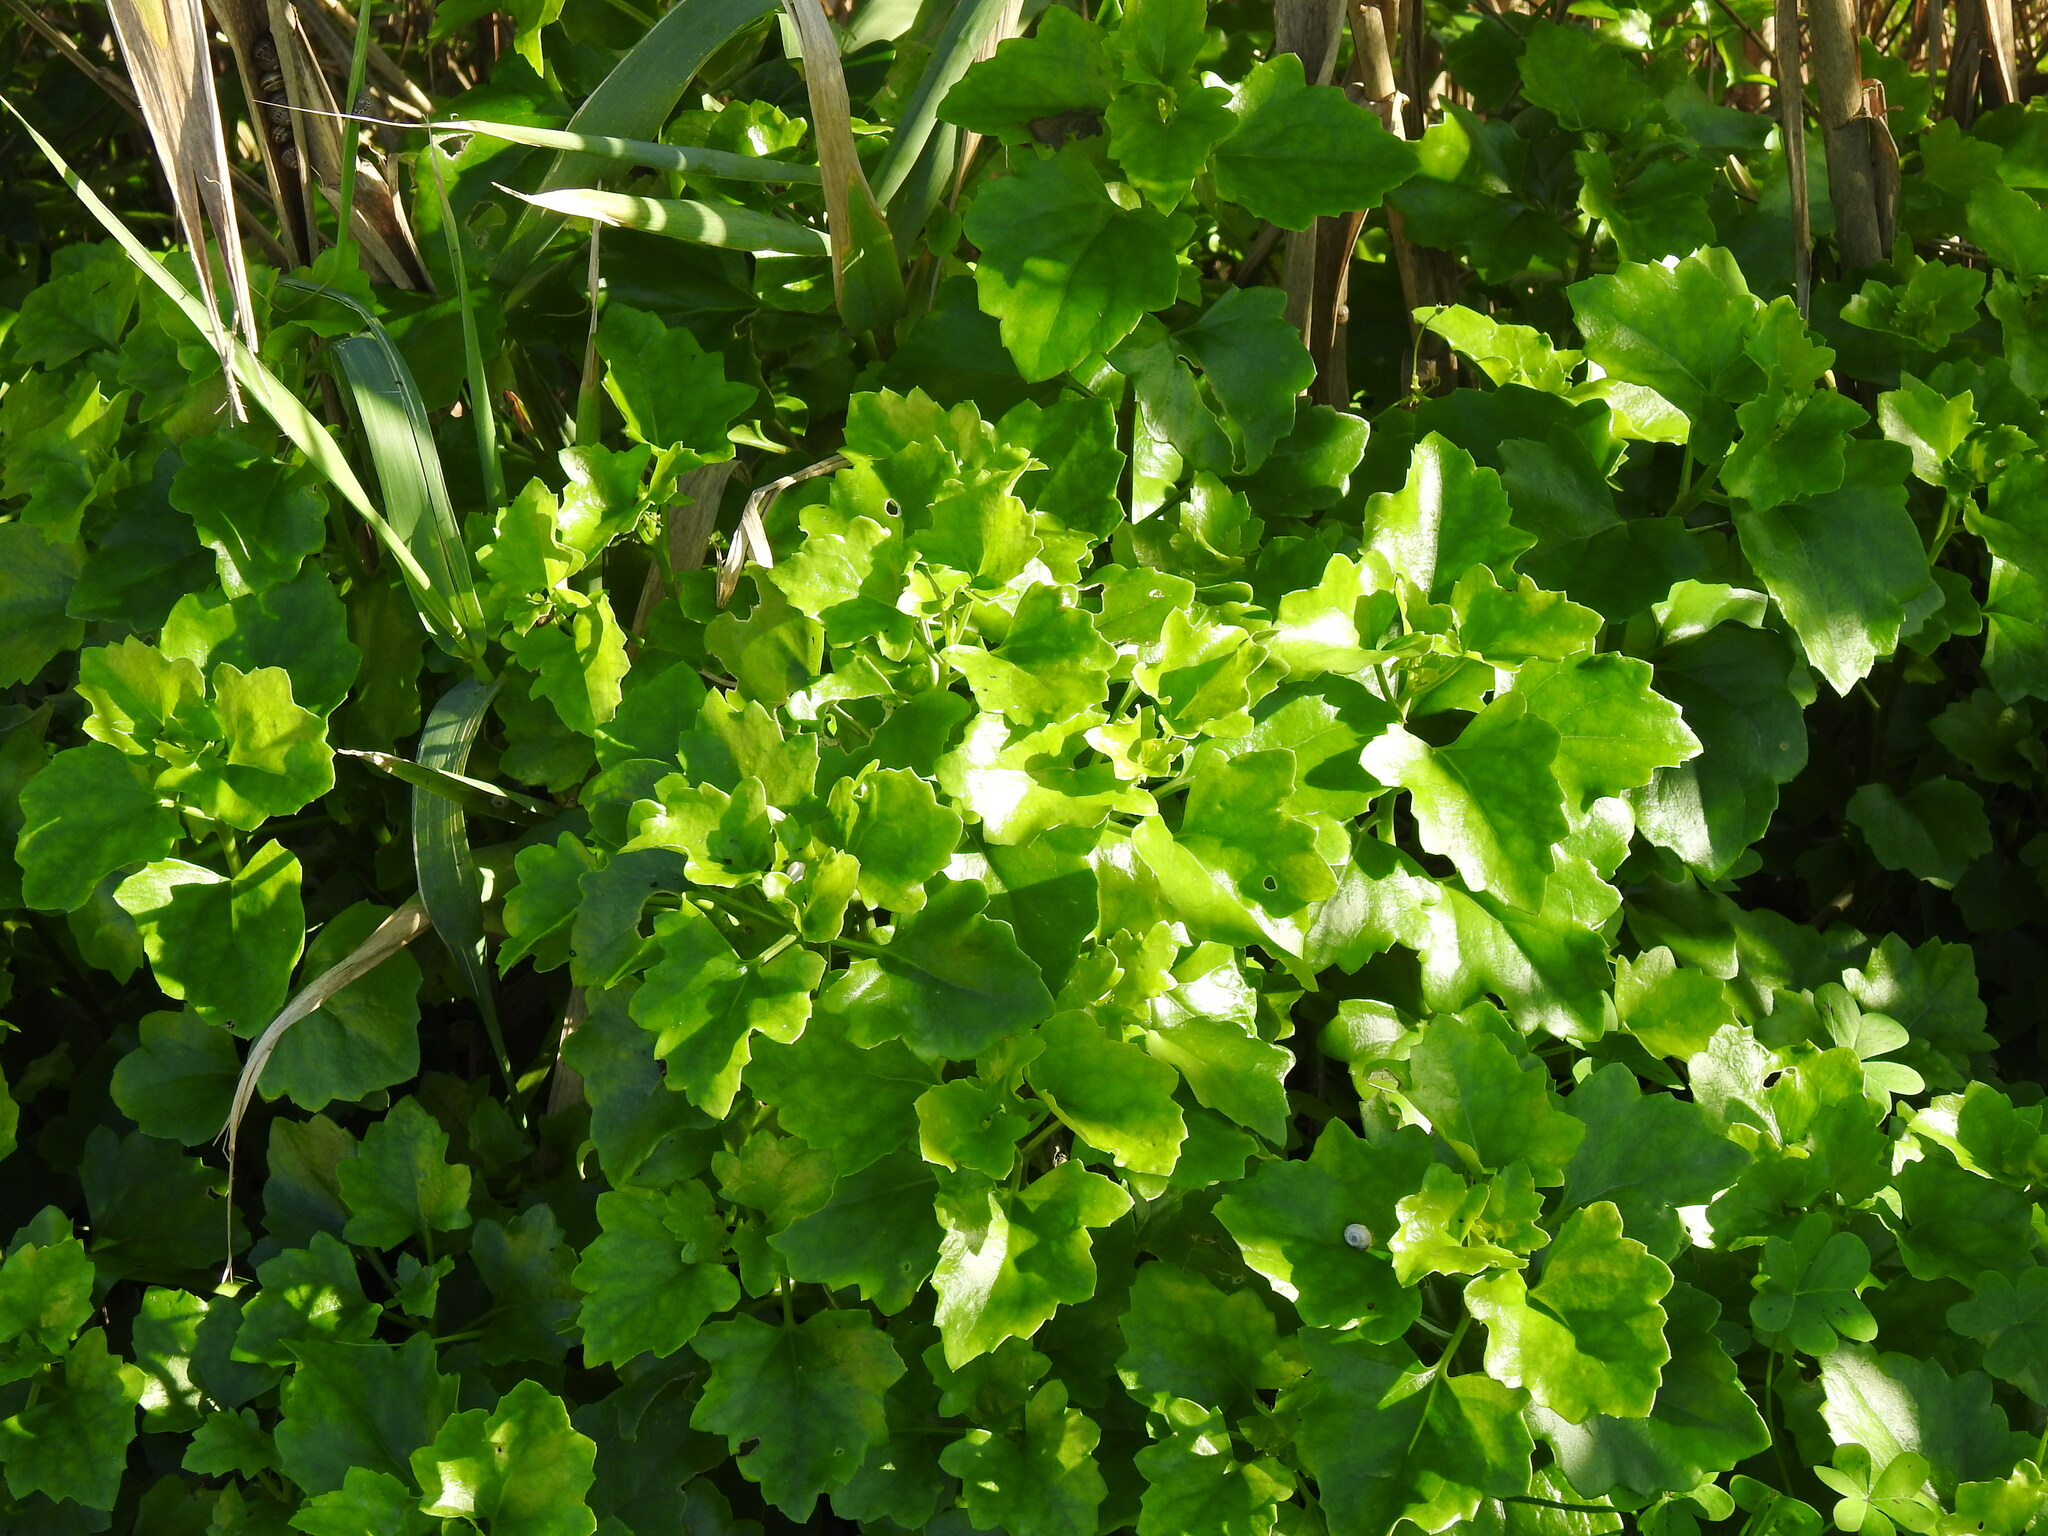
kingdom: Plantae
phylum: Tracheophyta
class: Magnoliopsida
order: Asterales
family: Asteraceae
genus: Senecio
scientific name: Senecio angulatus
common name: Climbing groundsel
